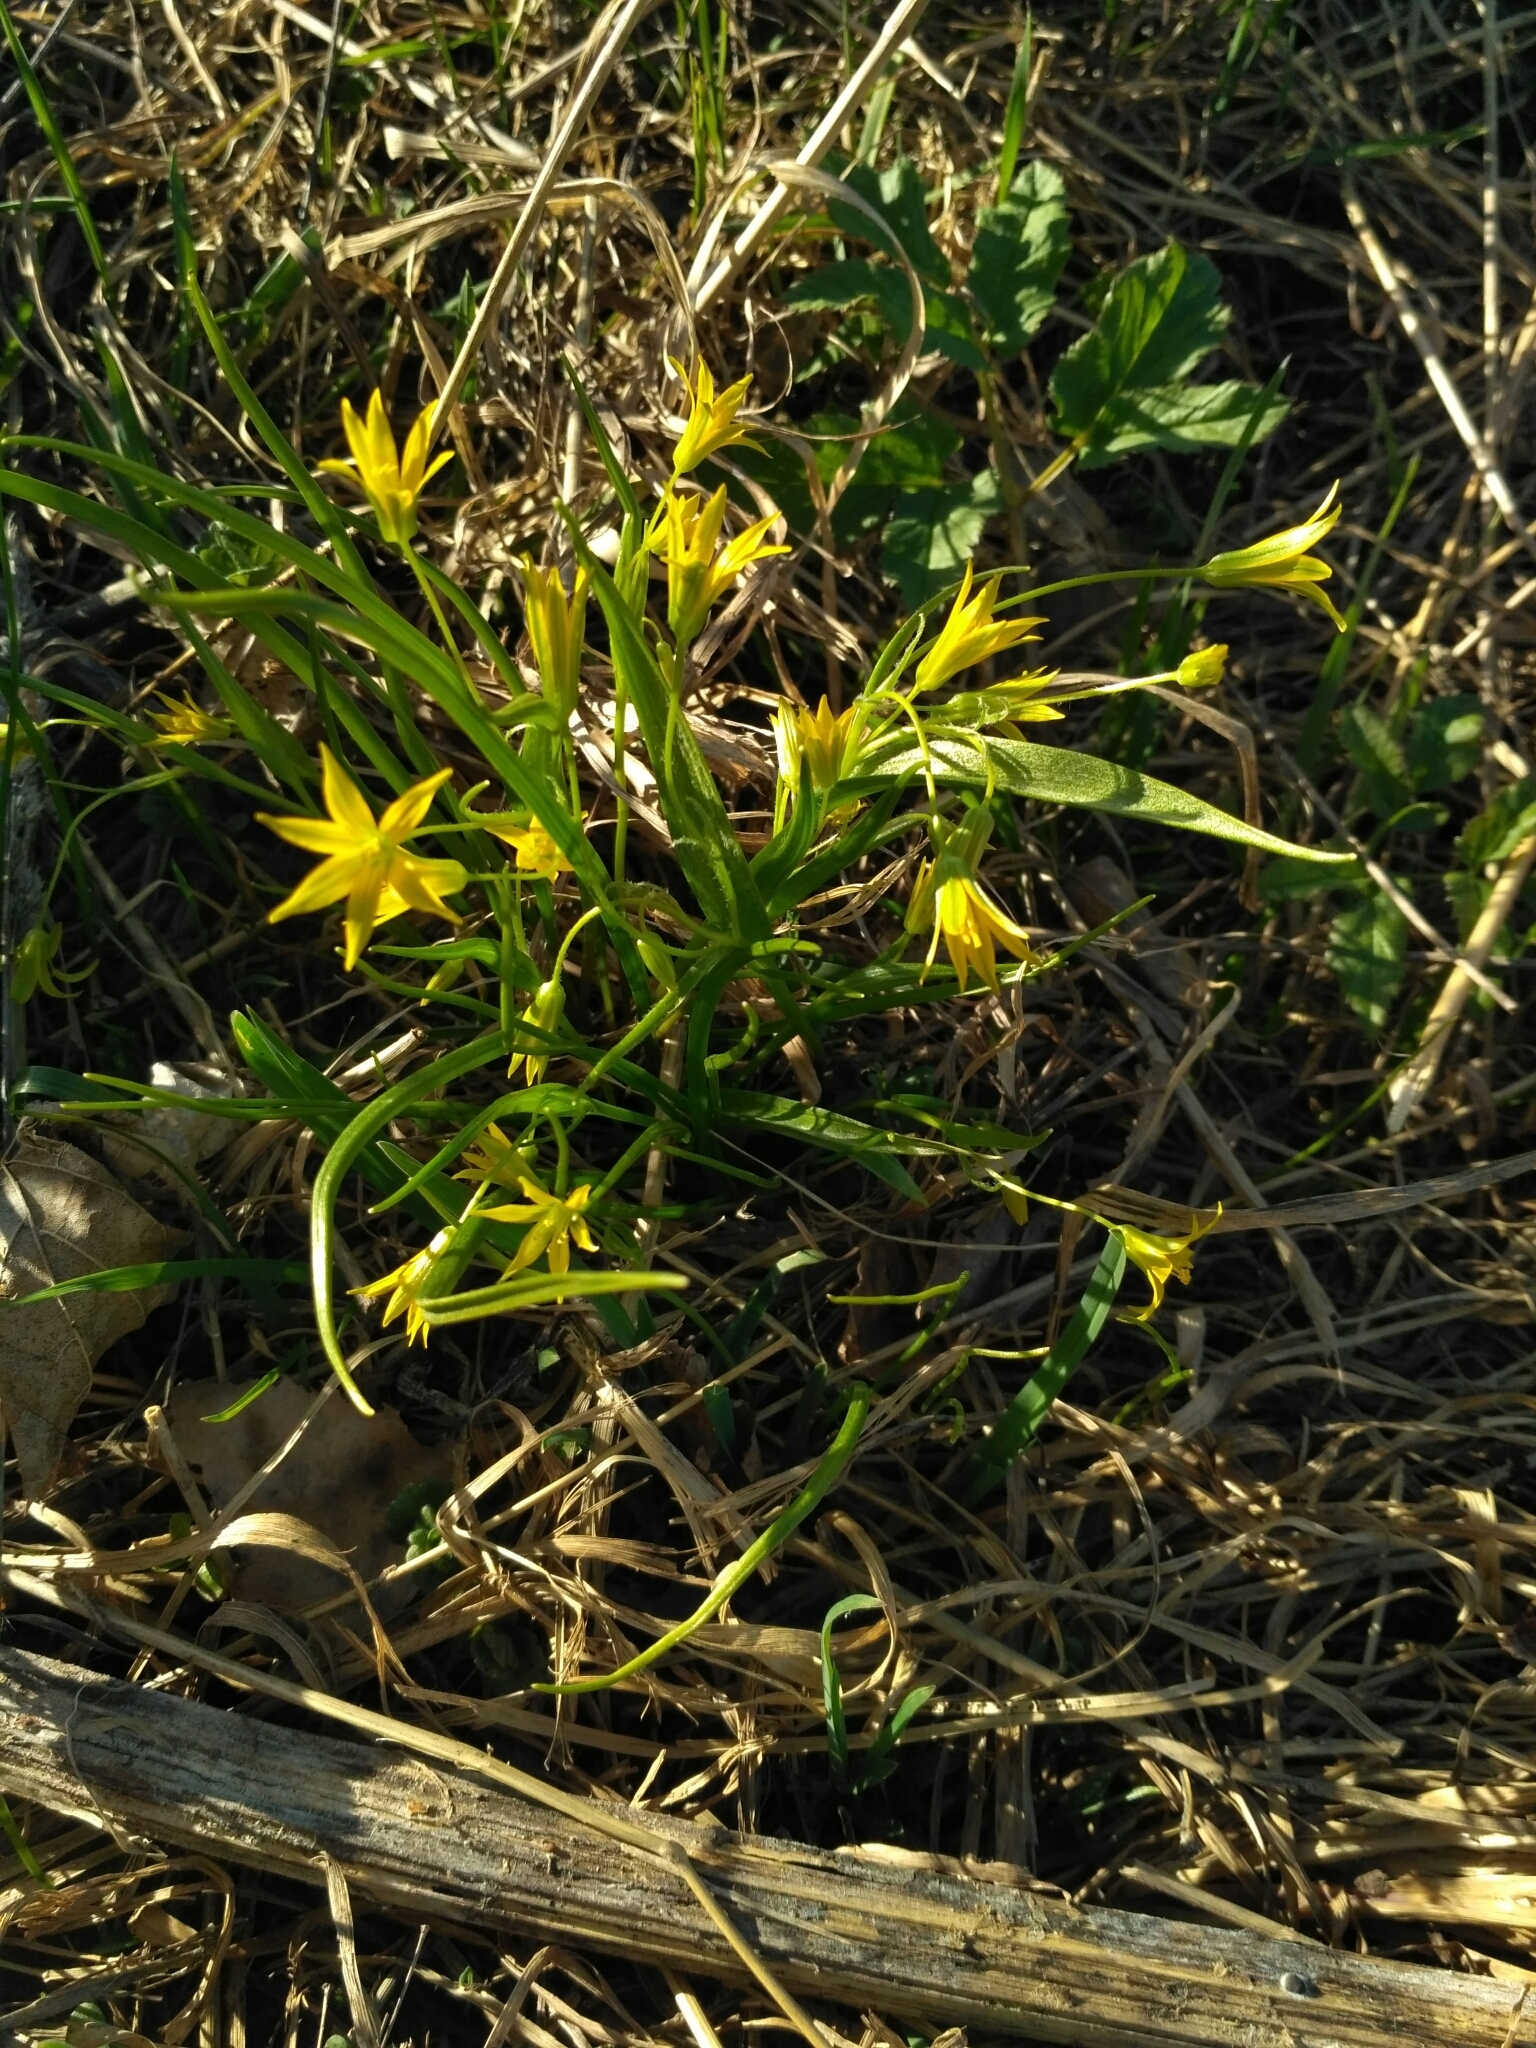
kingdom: Plantae
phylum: Tracheophyta
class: Liliopsida
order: Liliales
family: Liliaceae
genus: Gagea
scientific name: Gagea minima
